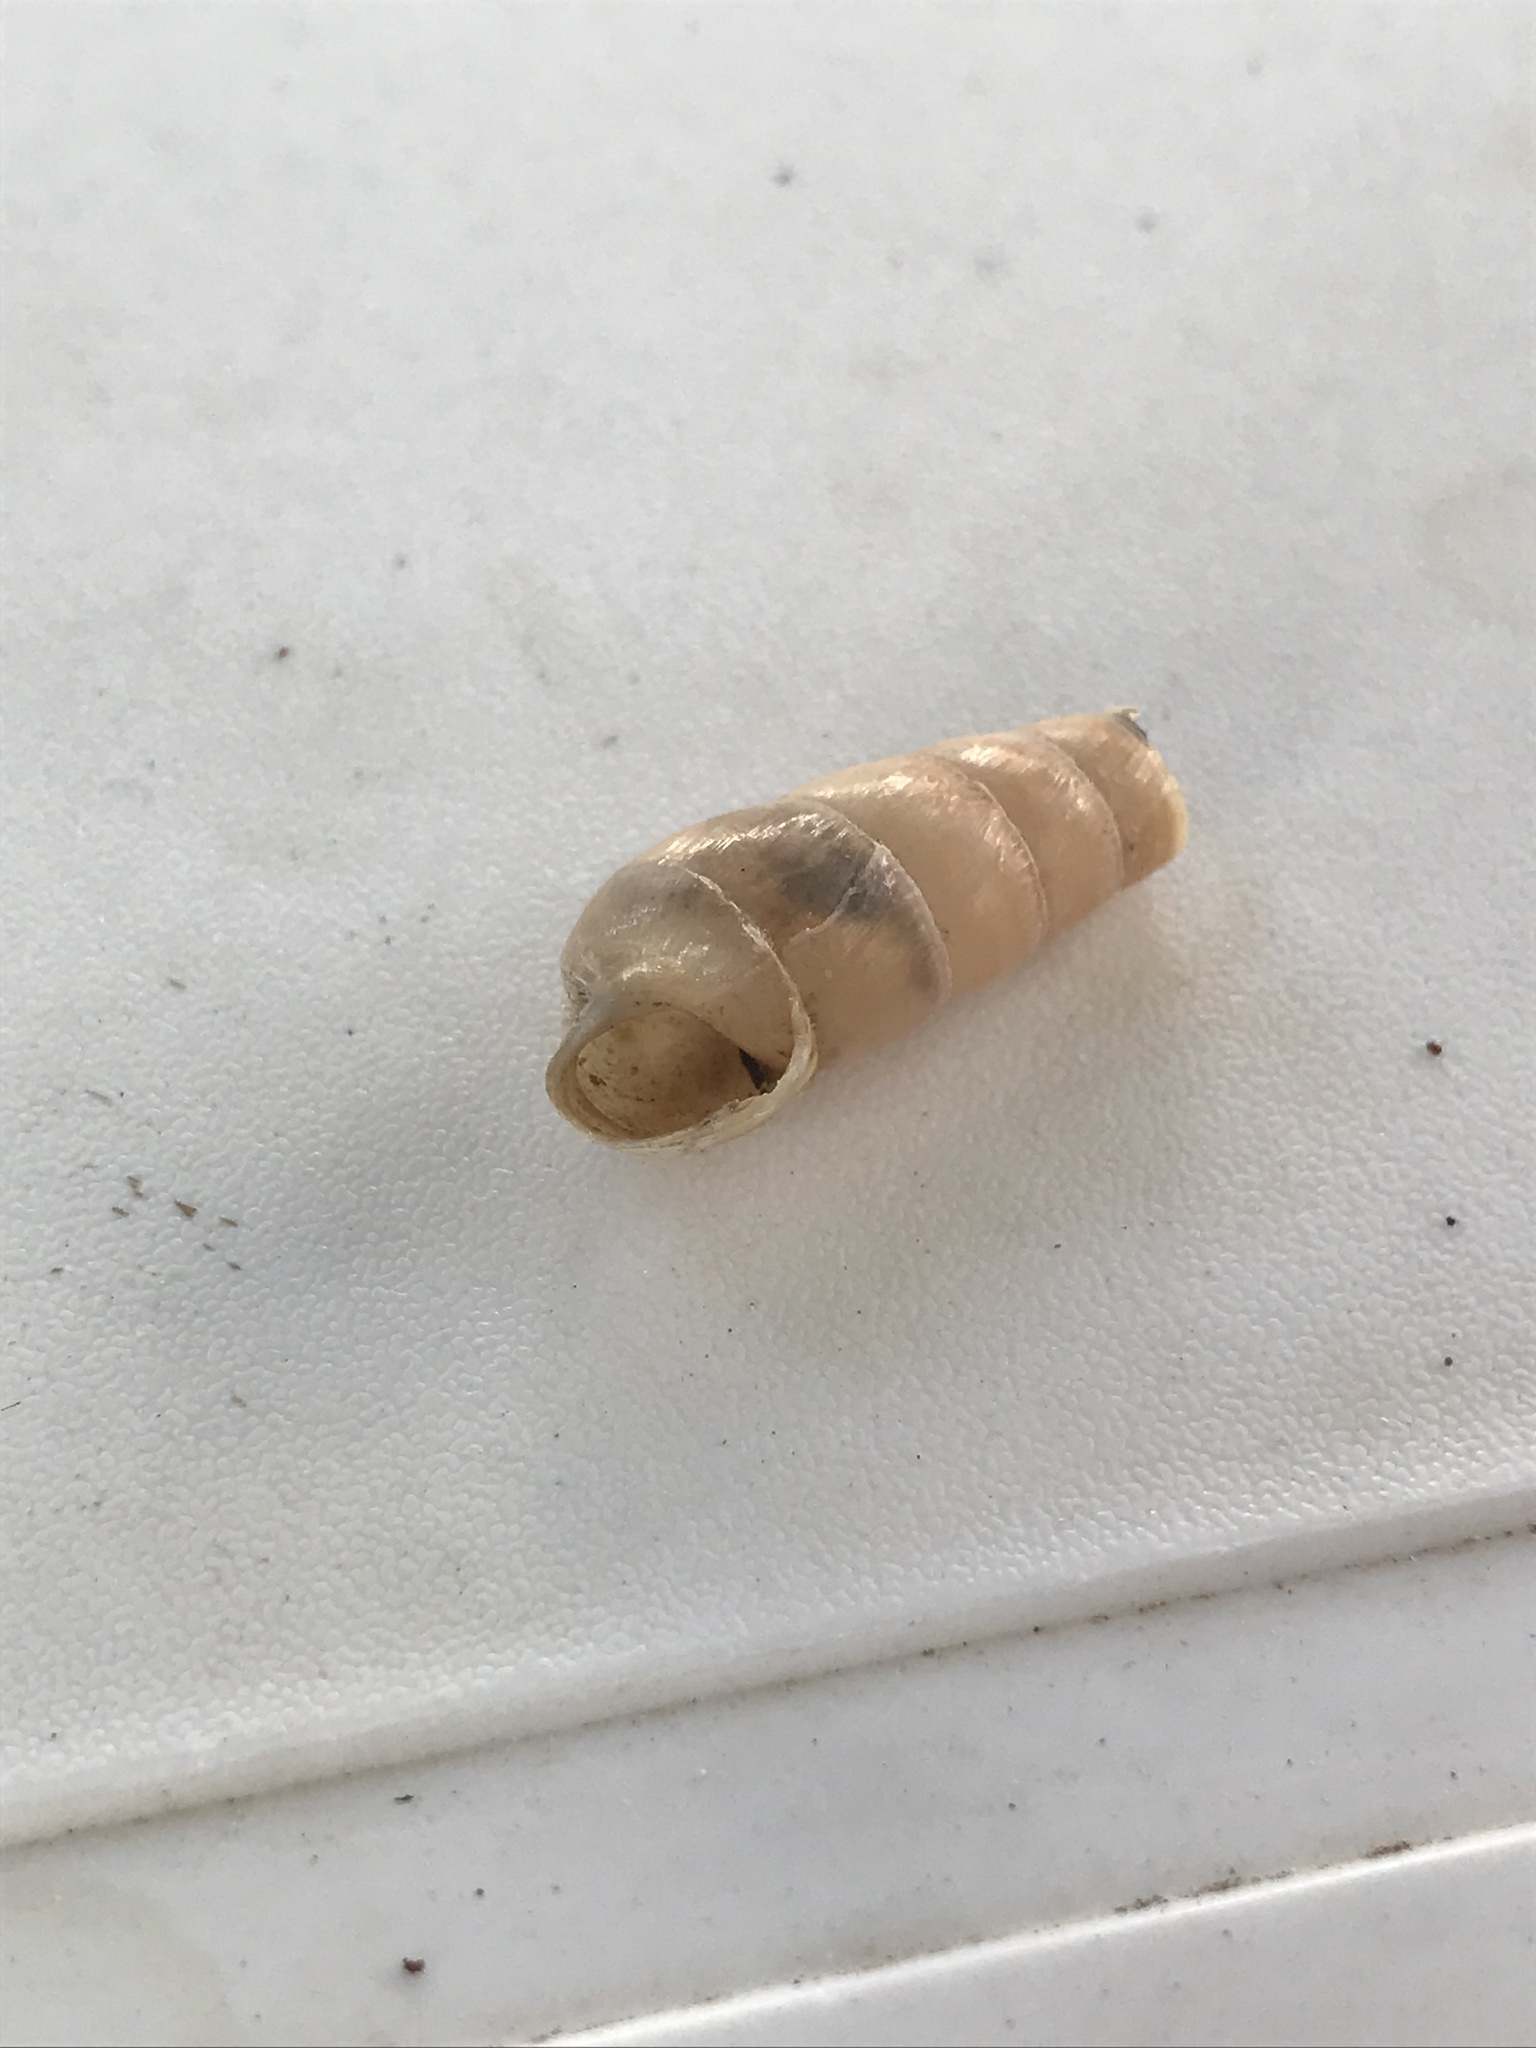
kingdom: Animalia
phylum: Mollusca
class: Gastropoda
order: Stylommatophora
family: Achatinidae
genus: Rumina
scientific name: Rumina decollata
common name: Decollate snail
